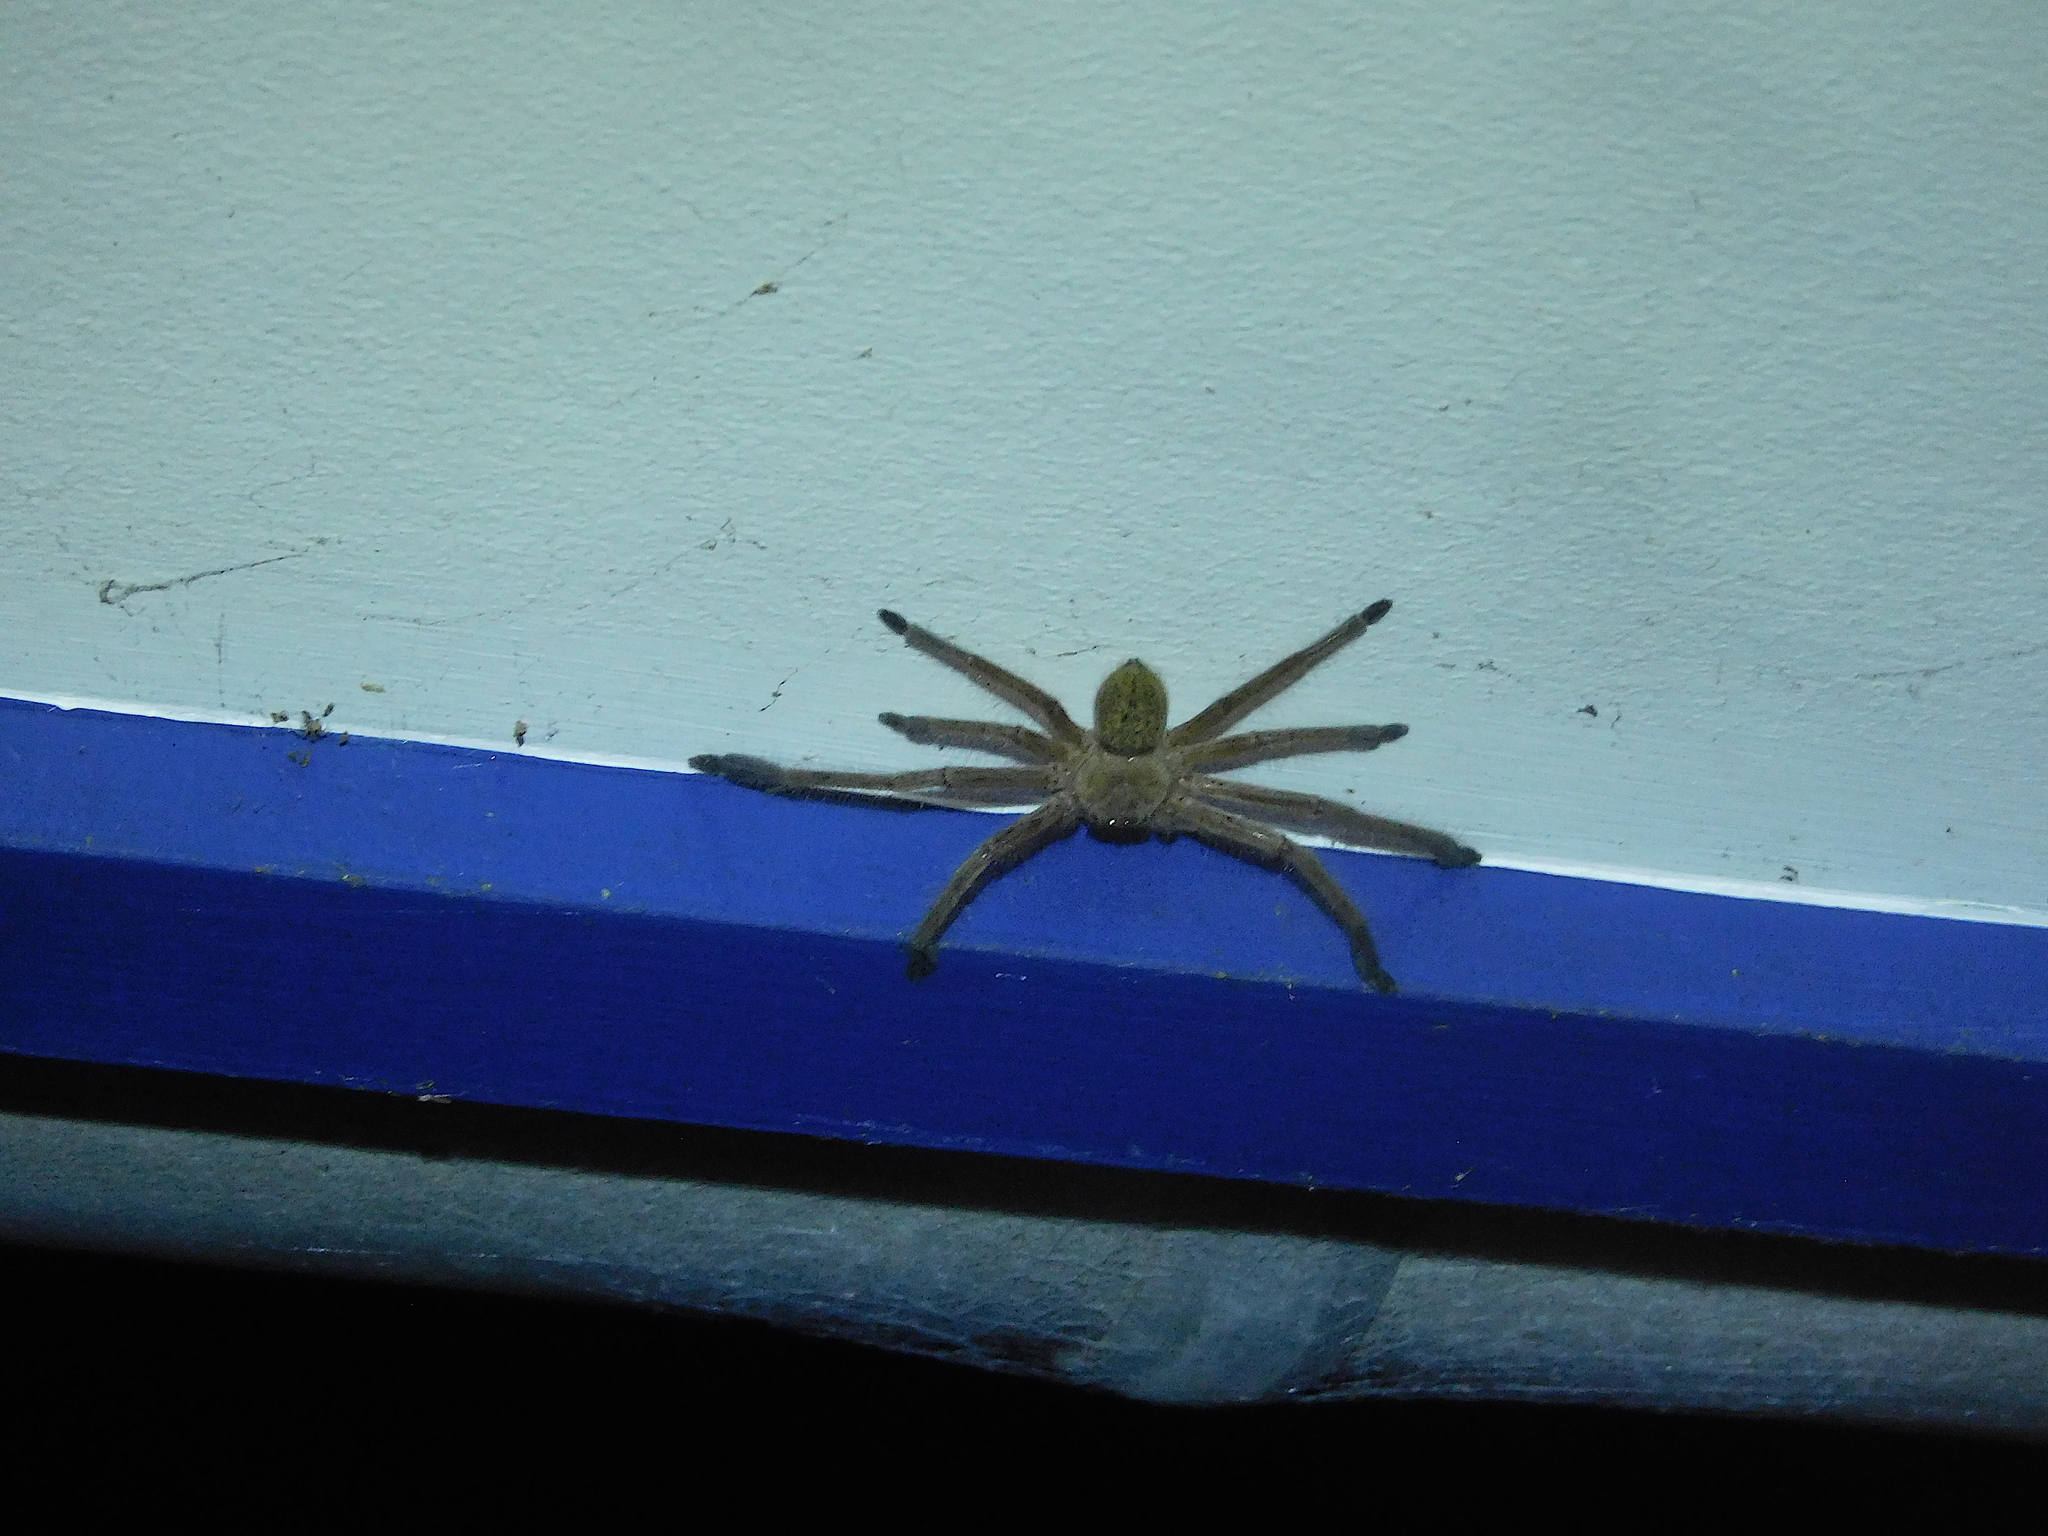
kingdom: Animalia
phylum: Arthropoda
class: Arachnida
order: Araneae
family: Sparassidae
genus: Delena
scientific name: Delena cancerides
